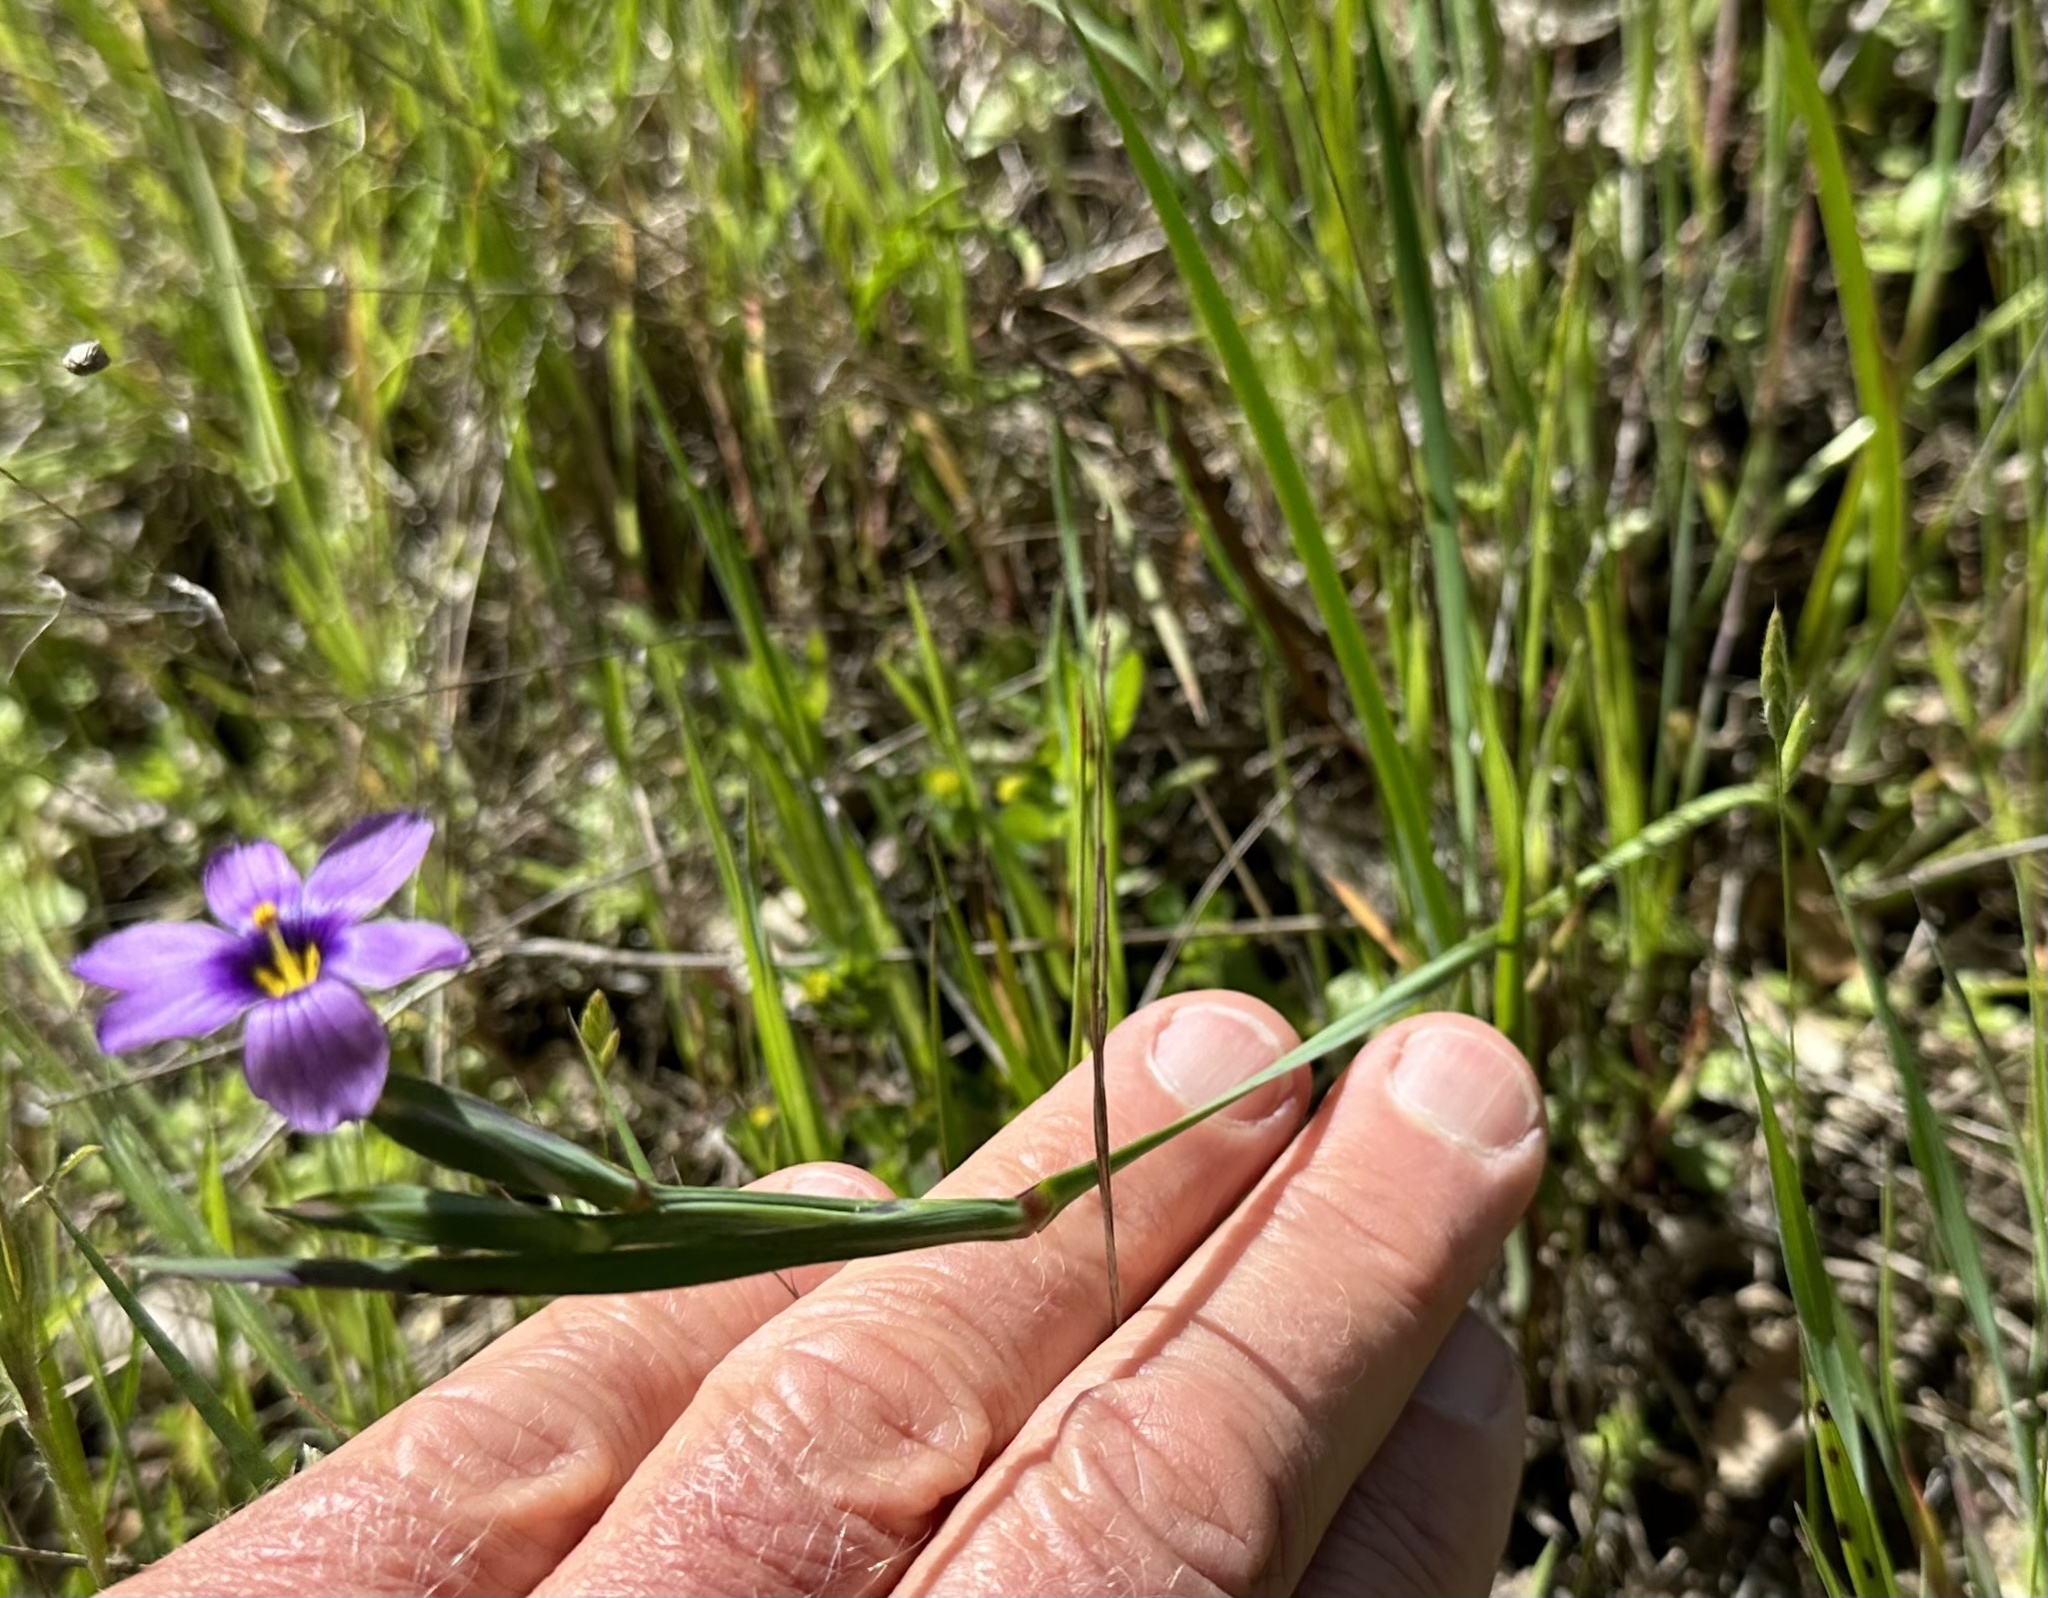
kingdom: Plantae
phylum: Tracheophyta
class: Liliopsida
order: Asparagales
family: Iridaceae
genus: Sisyrinchium
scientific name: Sisyrinchium bellum
